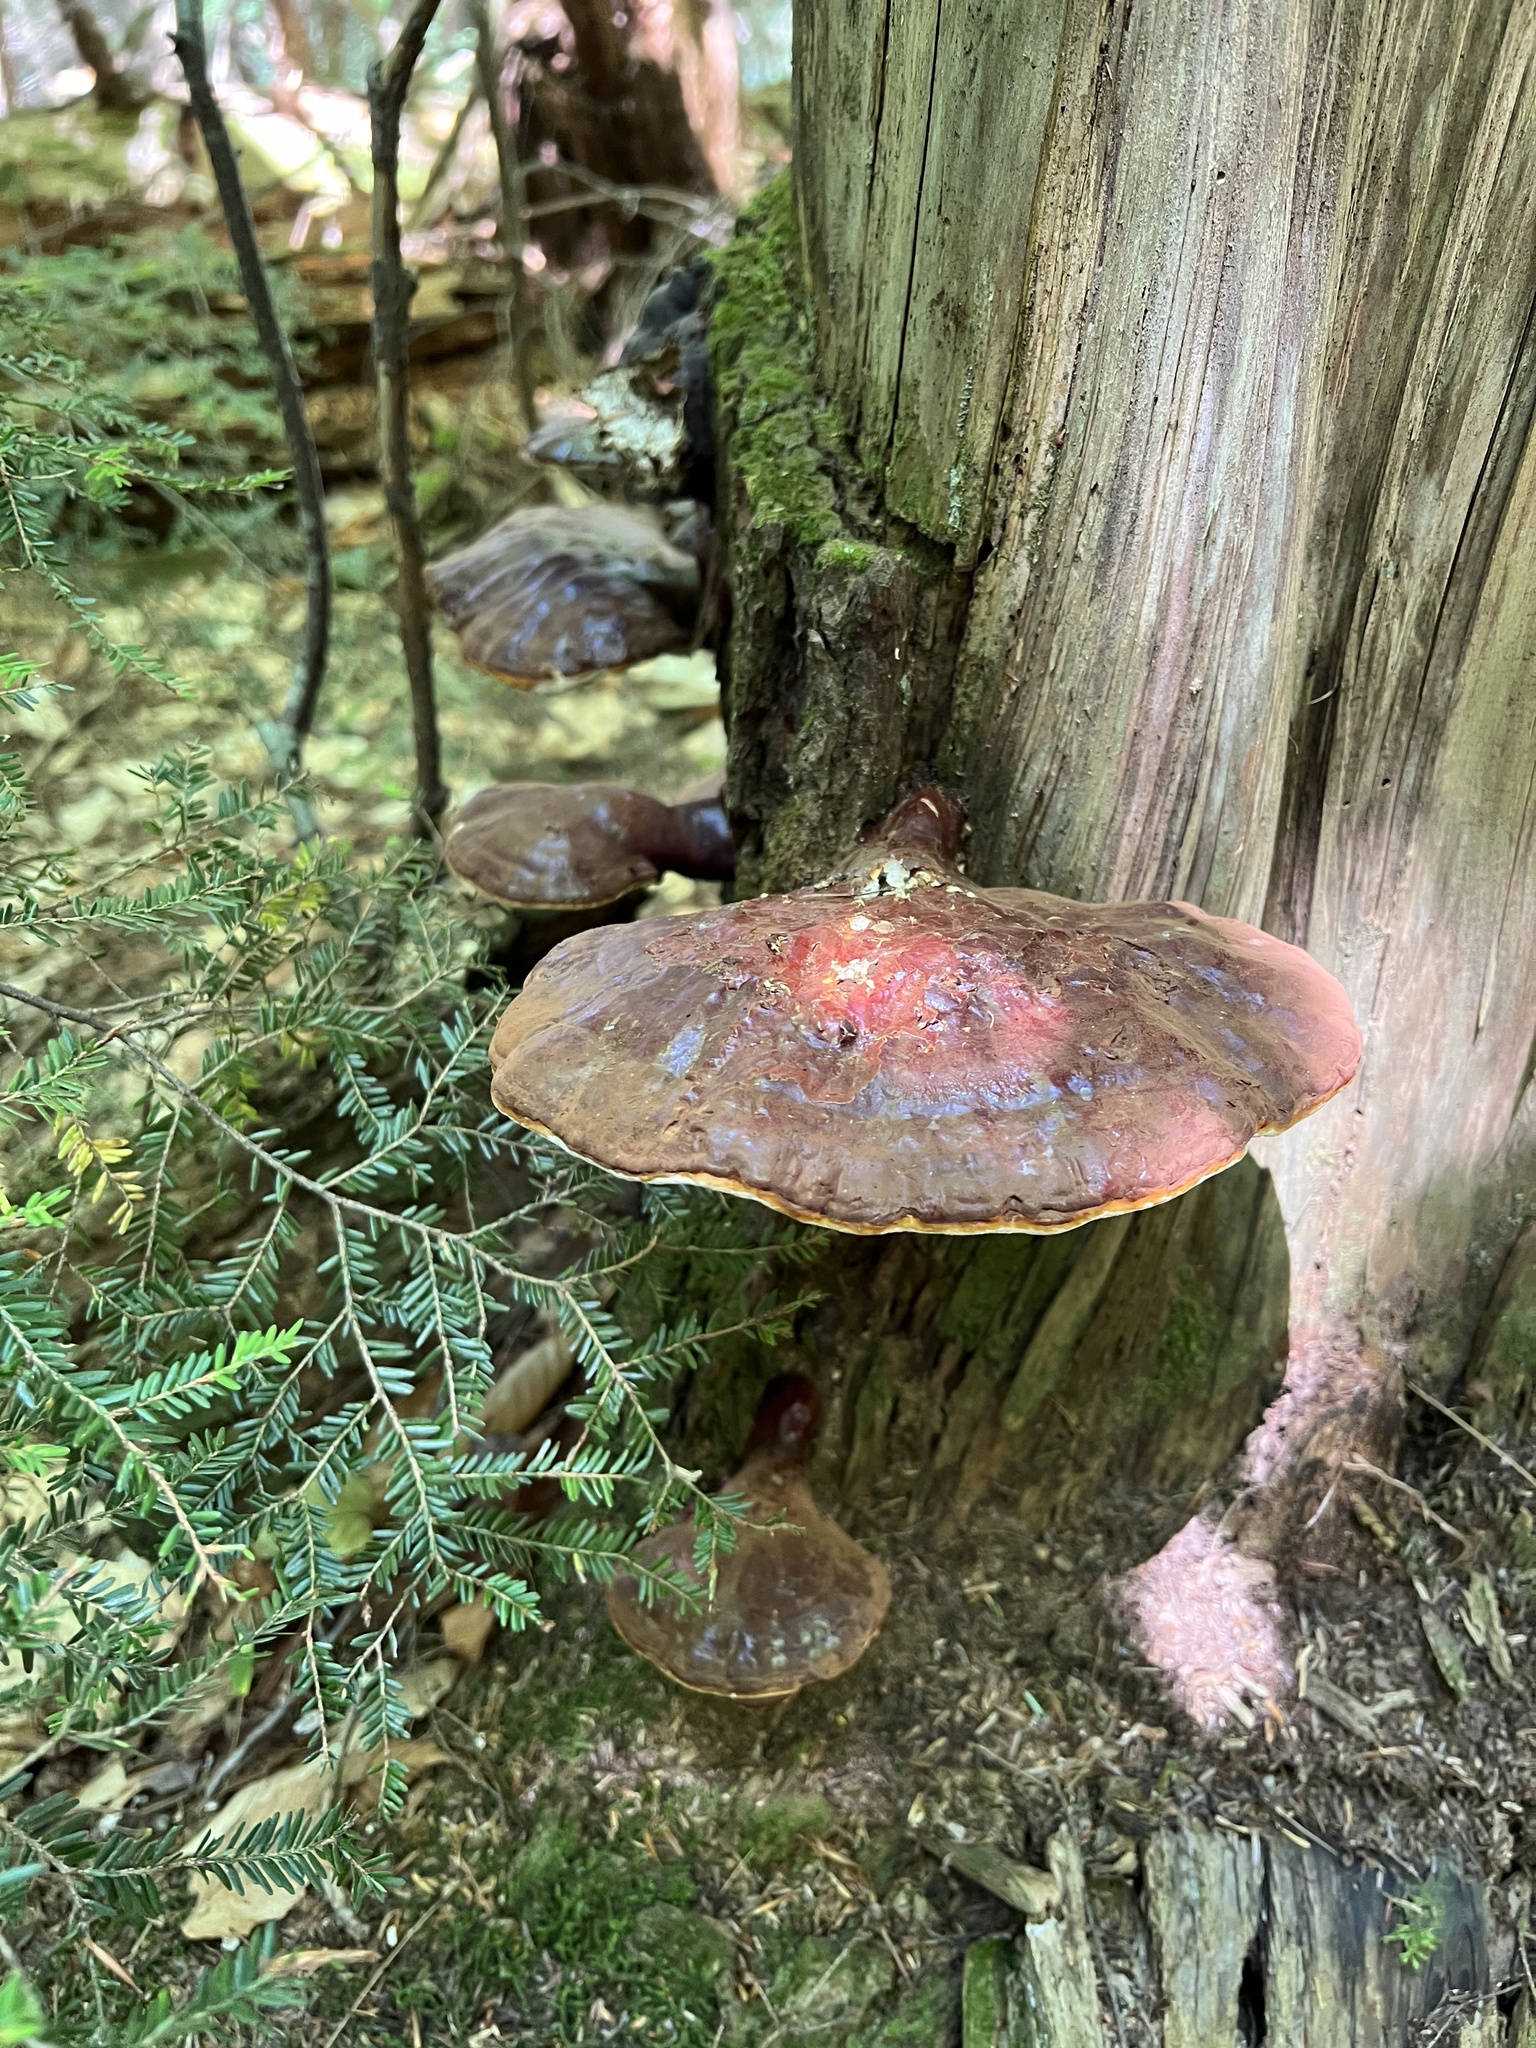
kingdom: Fungi
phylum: Basidiomycota
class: Agaricomycetes
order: Polyporales
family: Polyporaceae
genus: Ganoderma
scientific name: Ganoderma tsugae
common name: Hemlock varnish shelf
